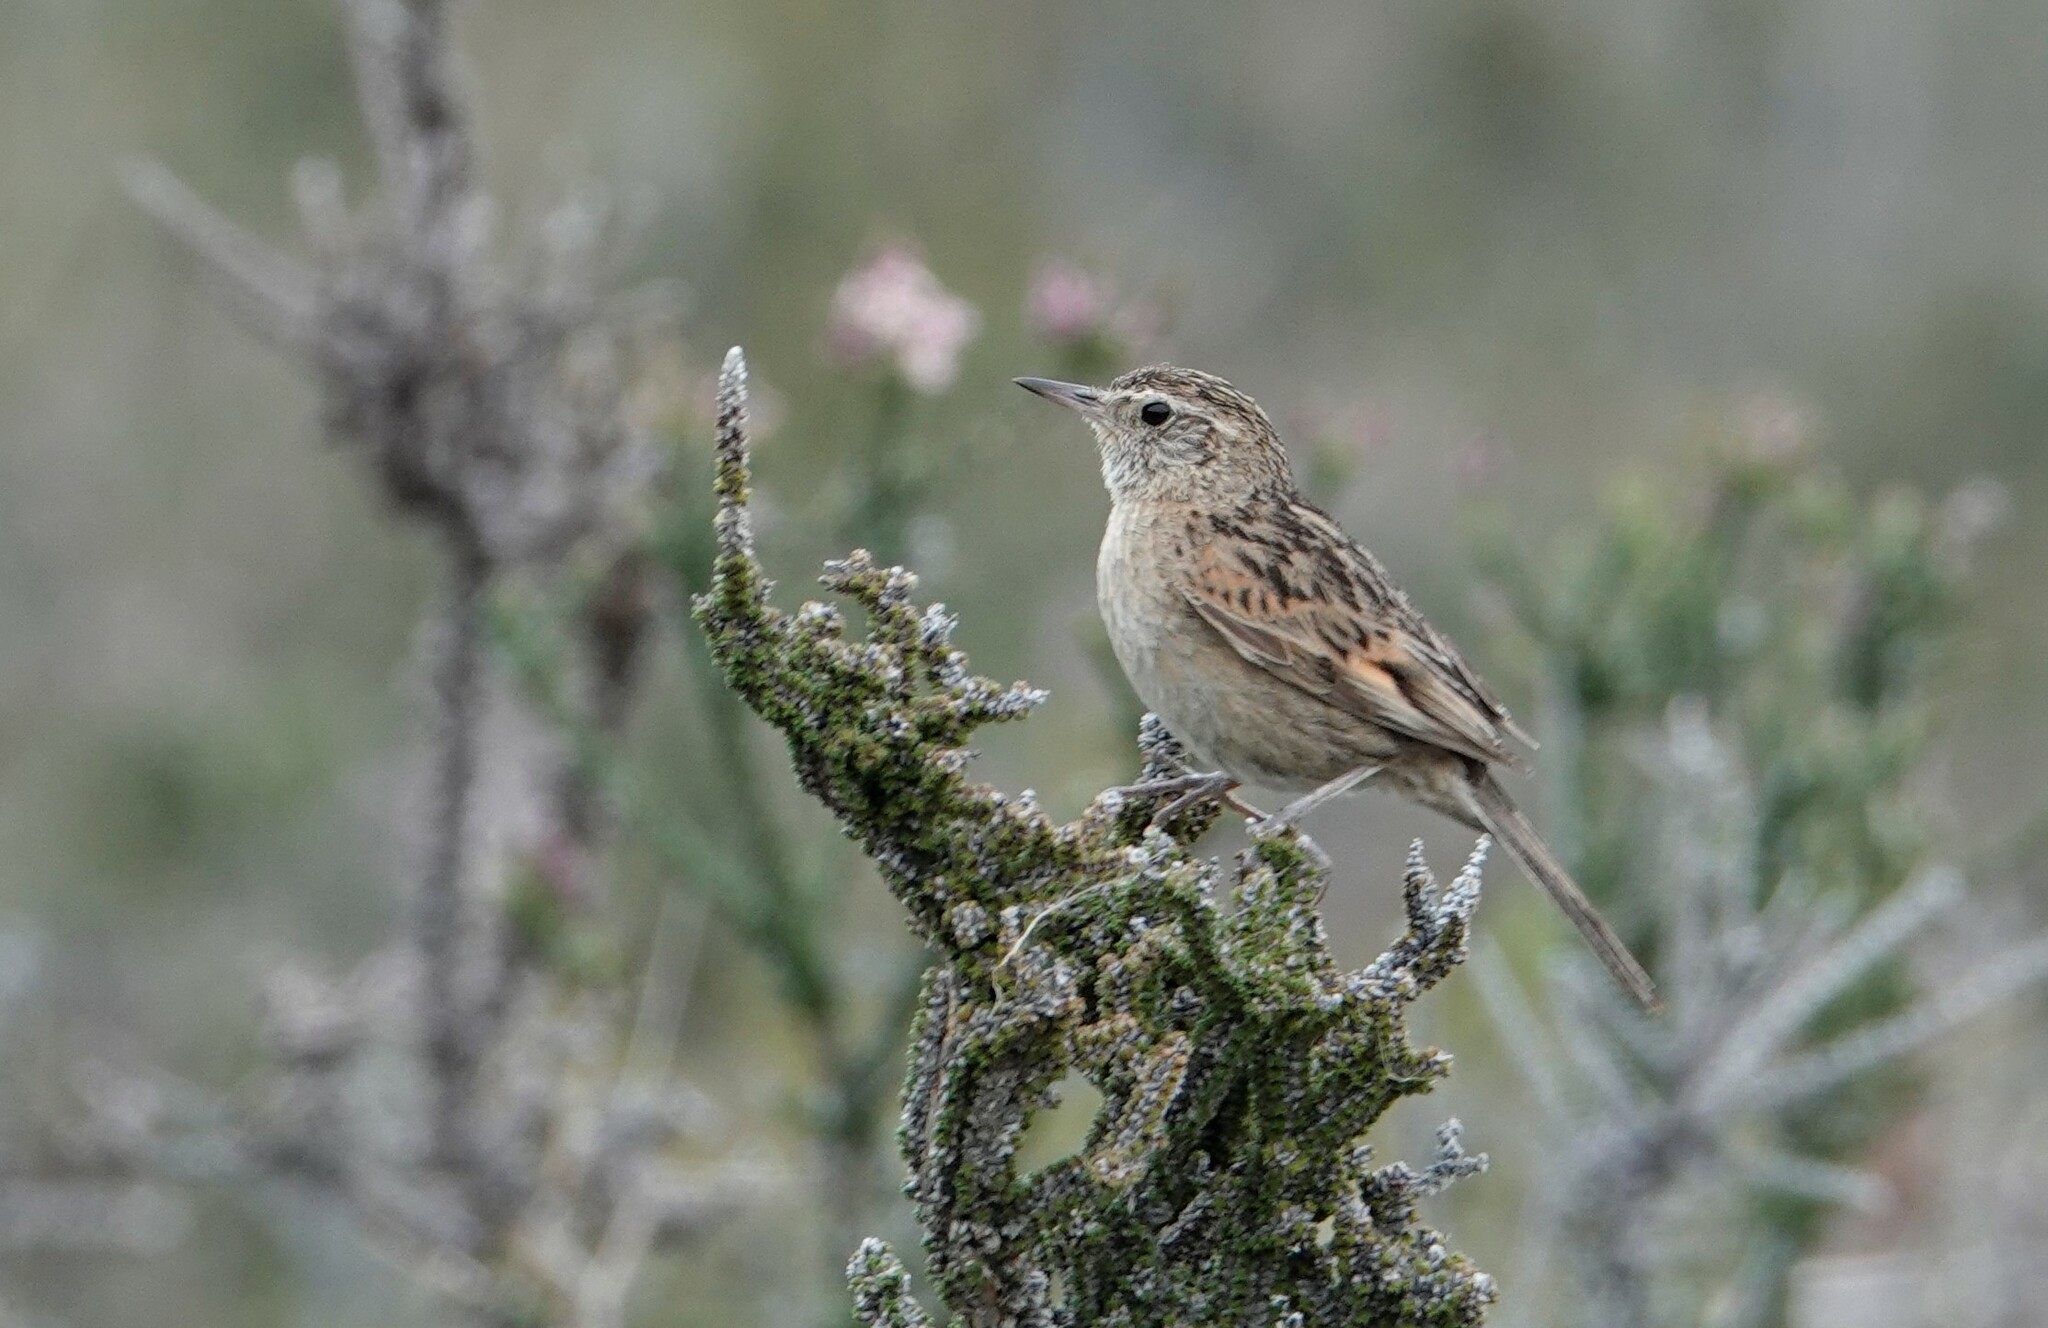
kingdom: Animalia
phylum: Chordata
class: Aves
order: Passeriformes
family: Furnariidae
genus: Asthenes
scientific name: Asthenes anthoides
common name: Austral canastero
